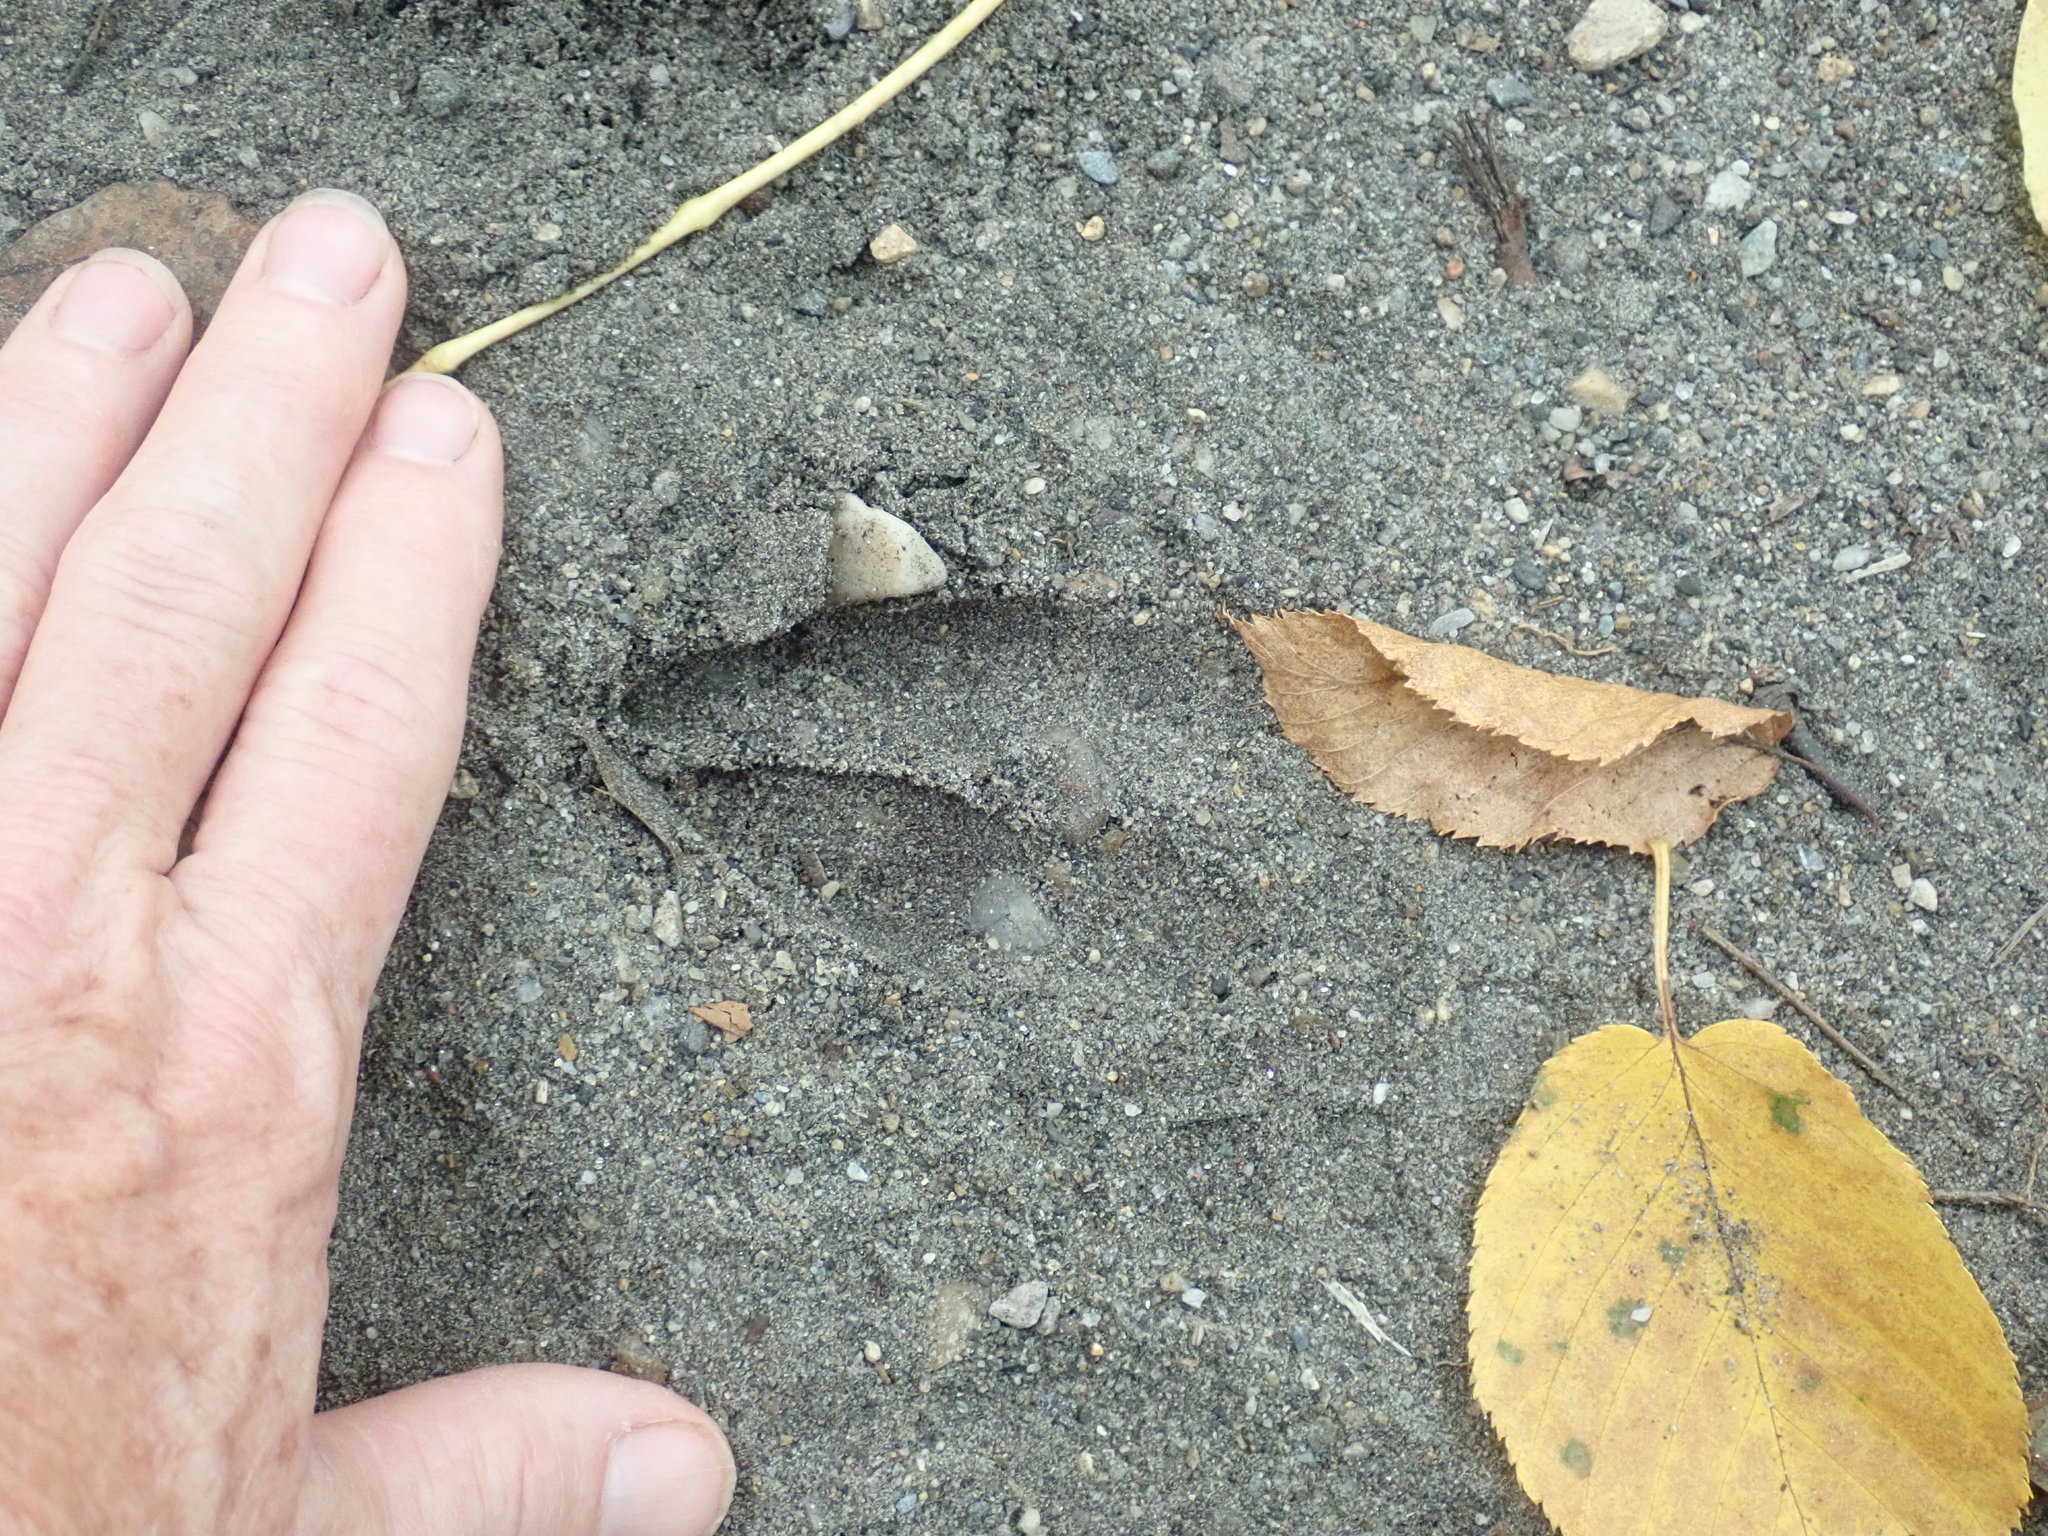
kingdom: Animalia
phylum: Chordata
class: Mammalia
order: Artiodactyla
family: Cervidae
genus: Odocoileus
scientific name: Odocoileus virginianus
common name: White-tailed deer
